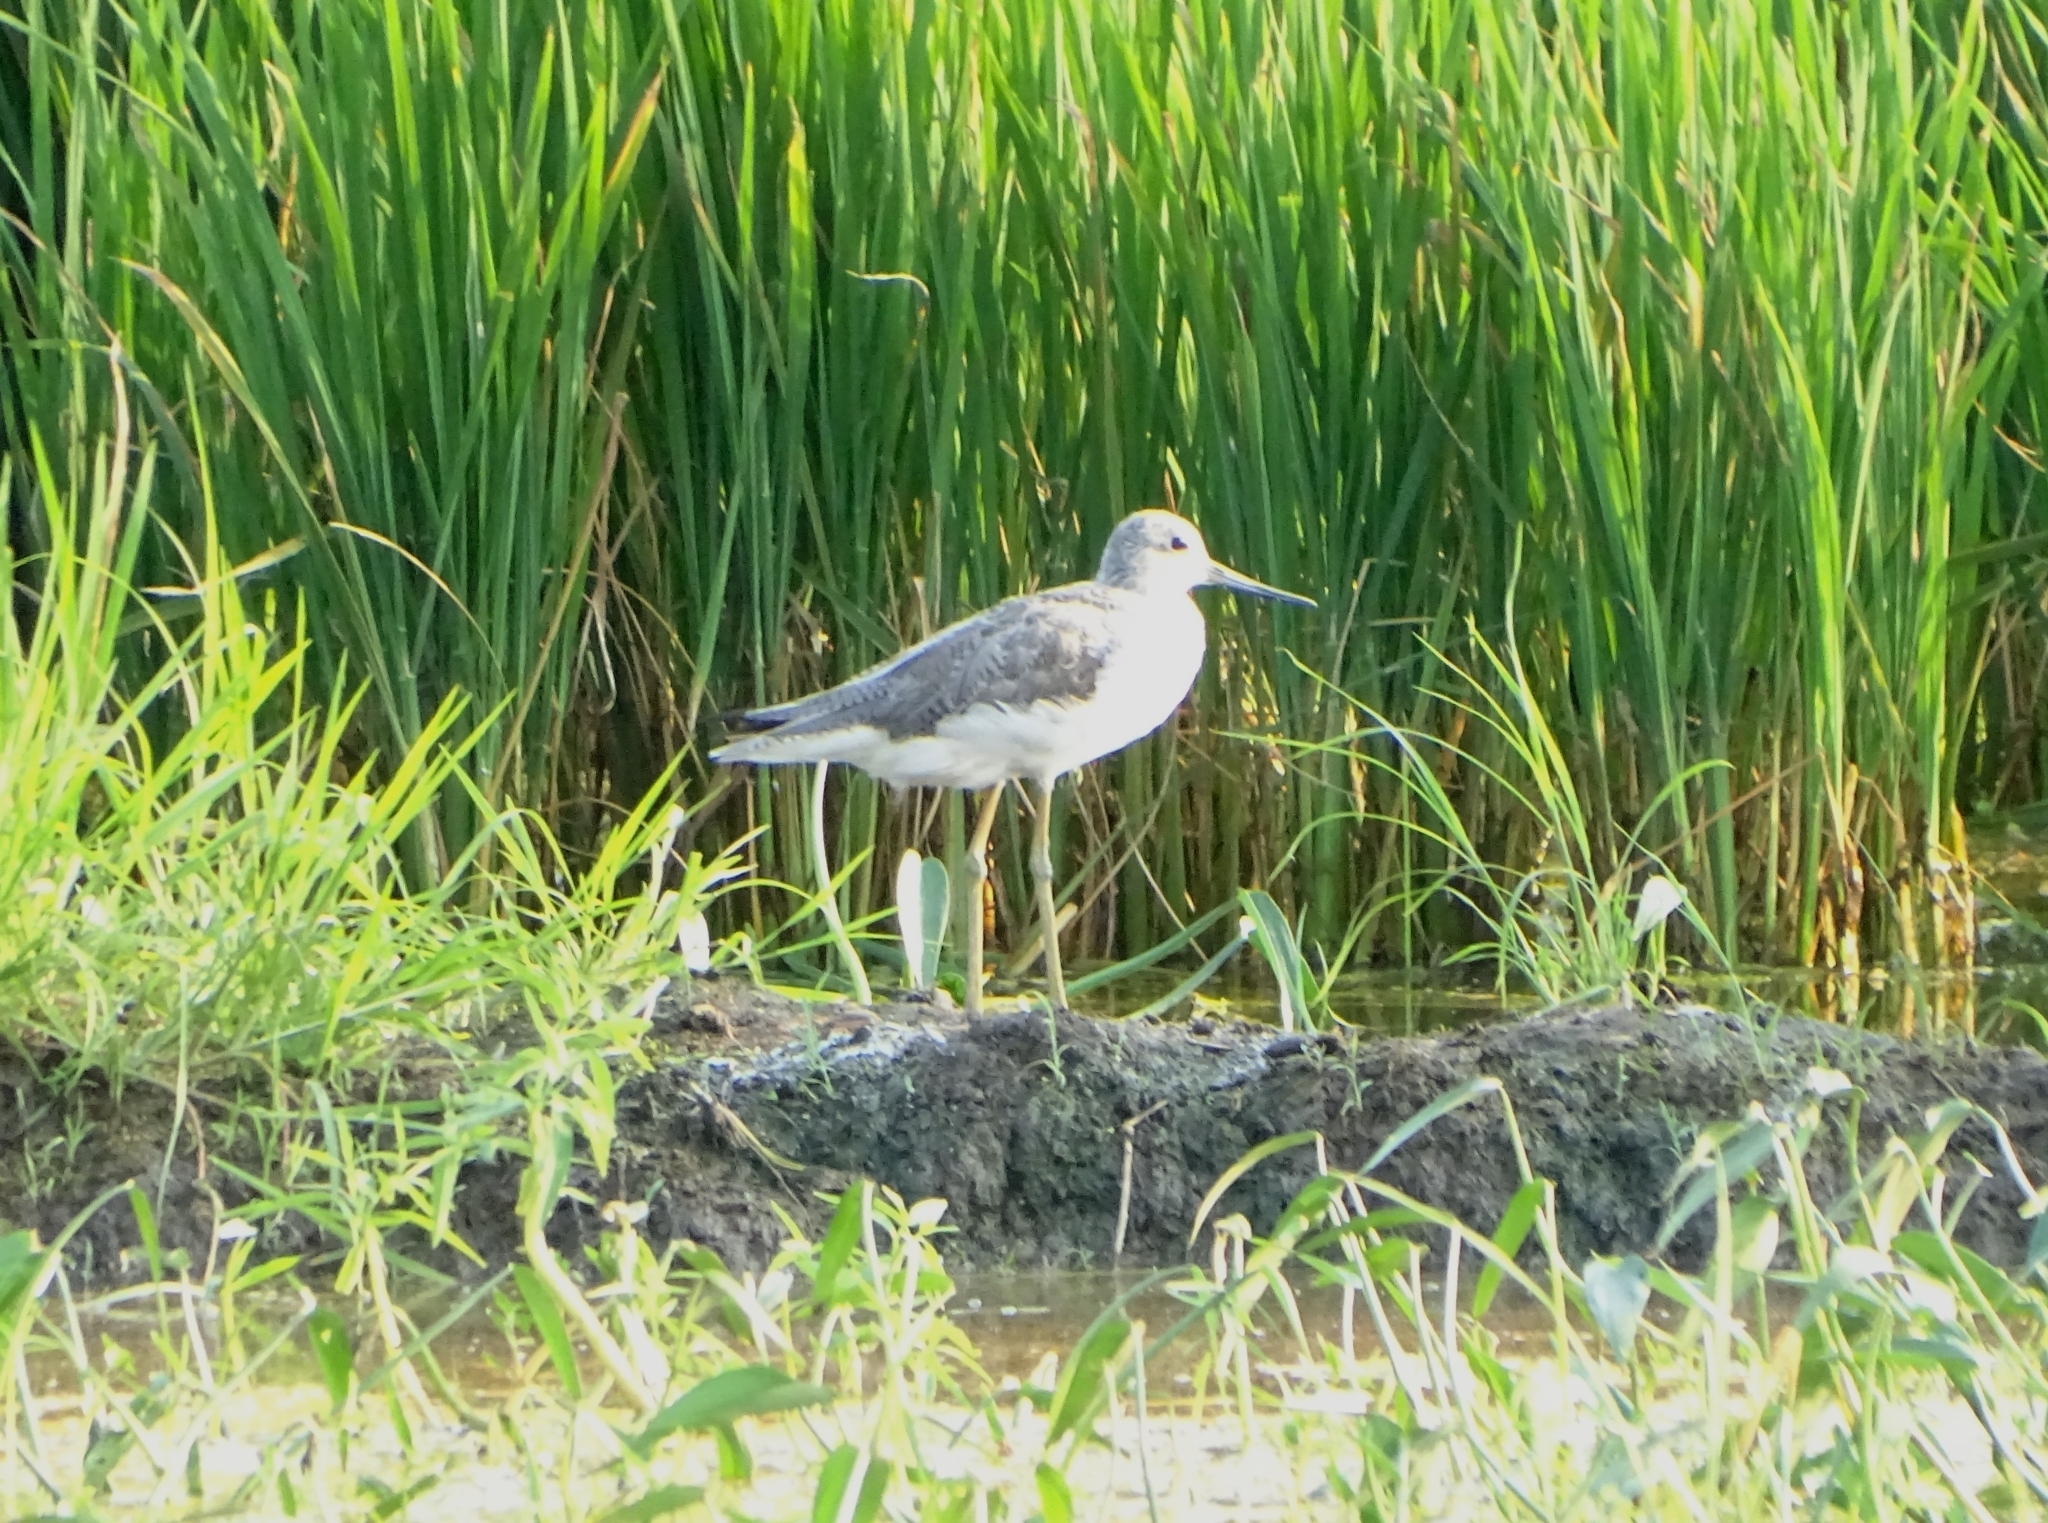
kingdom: Animalia
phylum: Chordata
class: Aves
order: Charadriiformes
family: Scolopacidae
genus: Tringa
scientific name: Tringa nebularia
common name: Common greenshank
